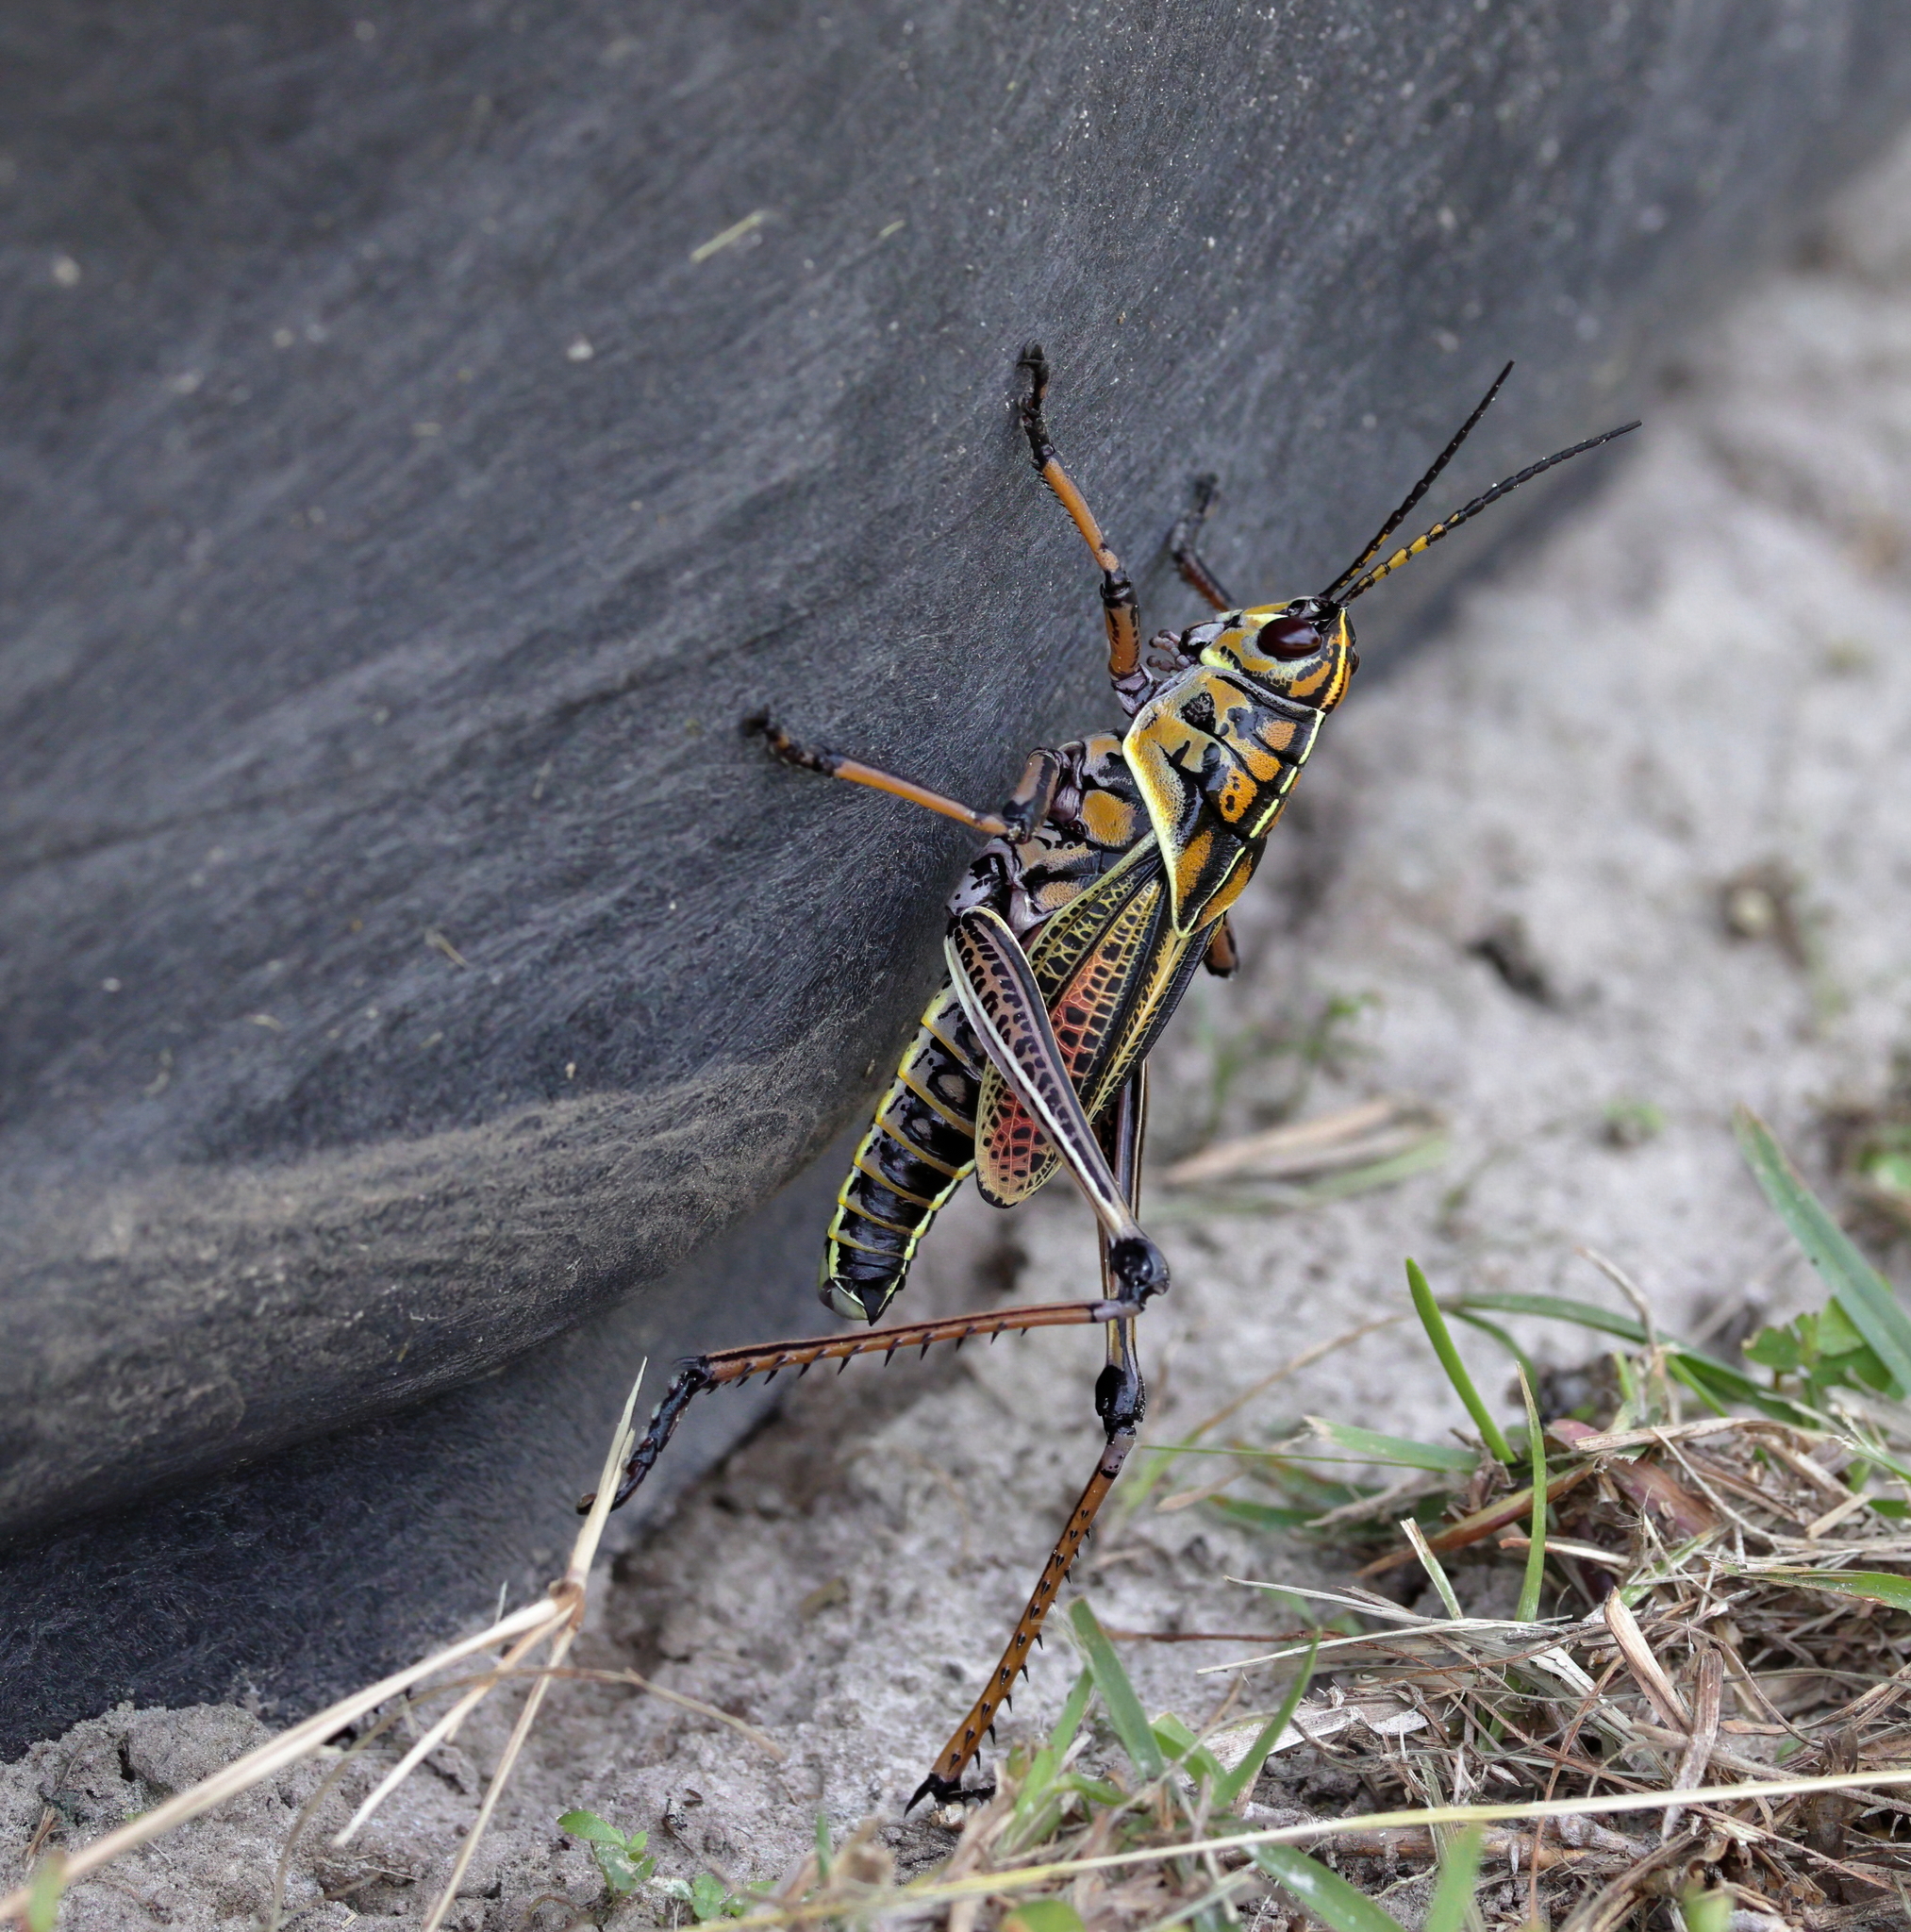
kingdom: Animalia
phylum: Arthropoda
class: Insecta
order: Orthoptera
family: Romaleidae
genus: Romalea
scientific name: Romalea microptera
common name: Eastern lubber grasshopper
